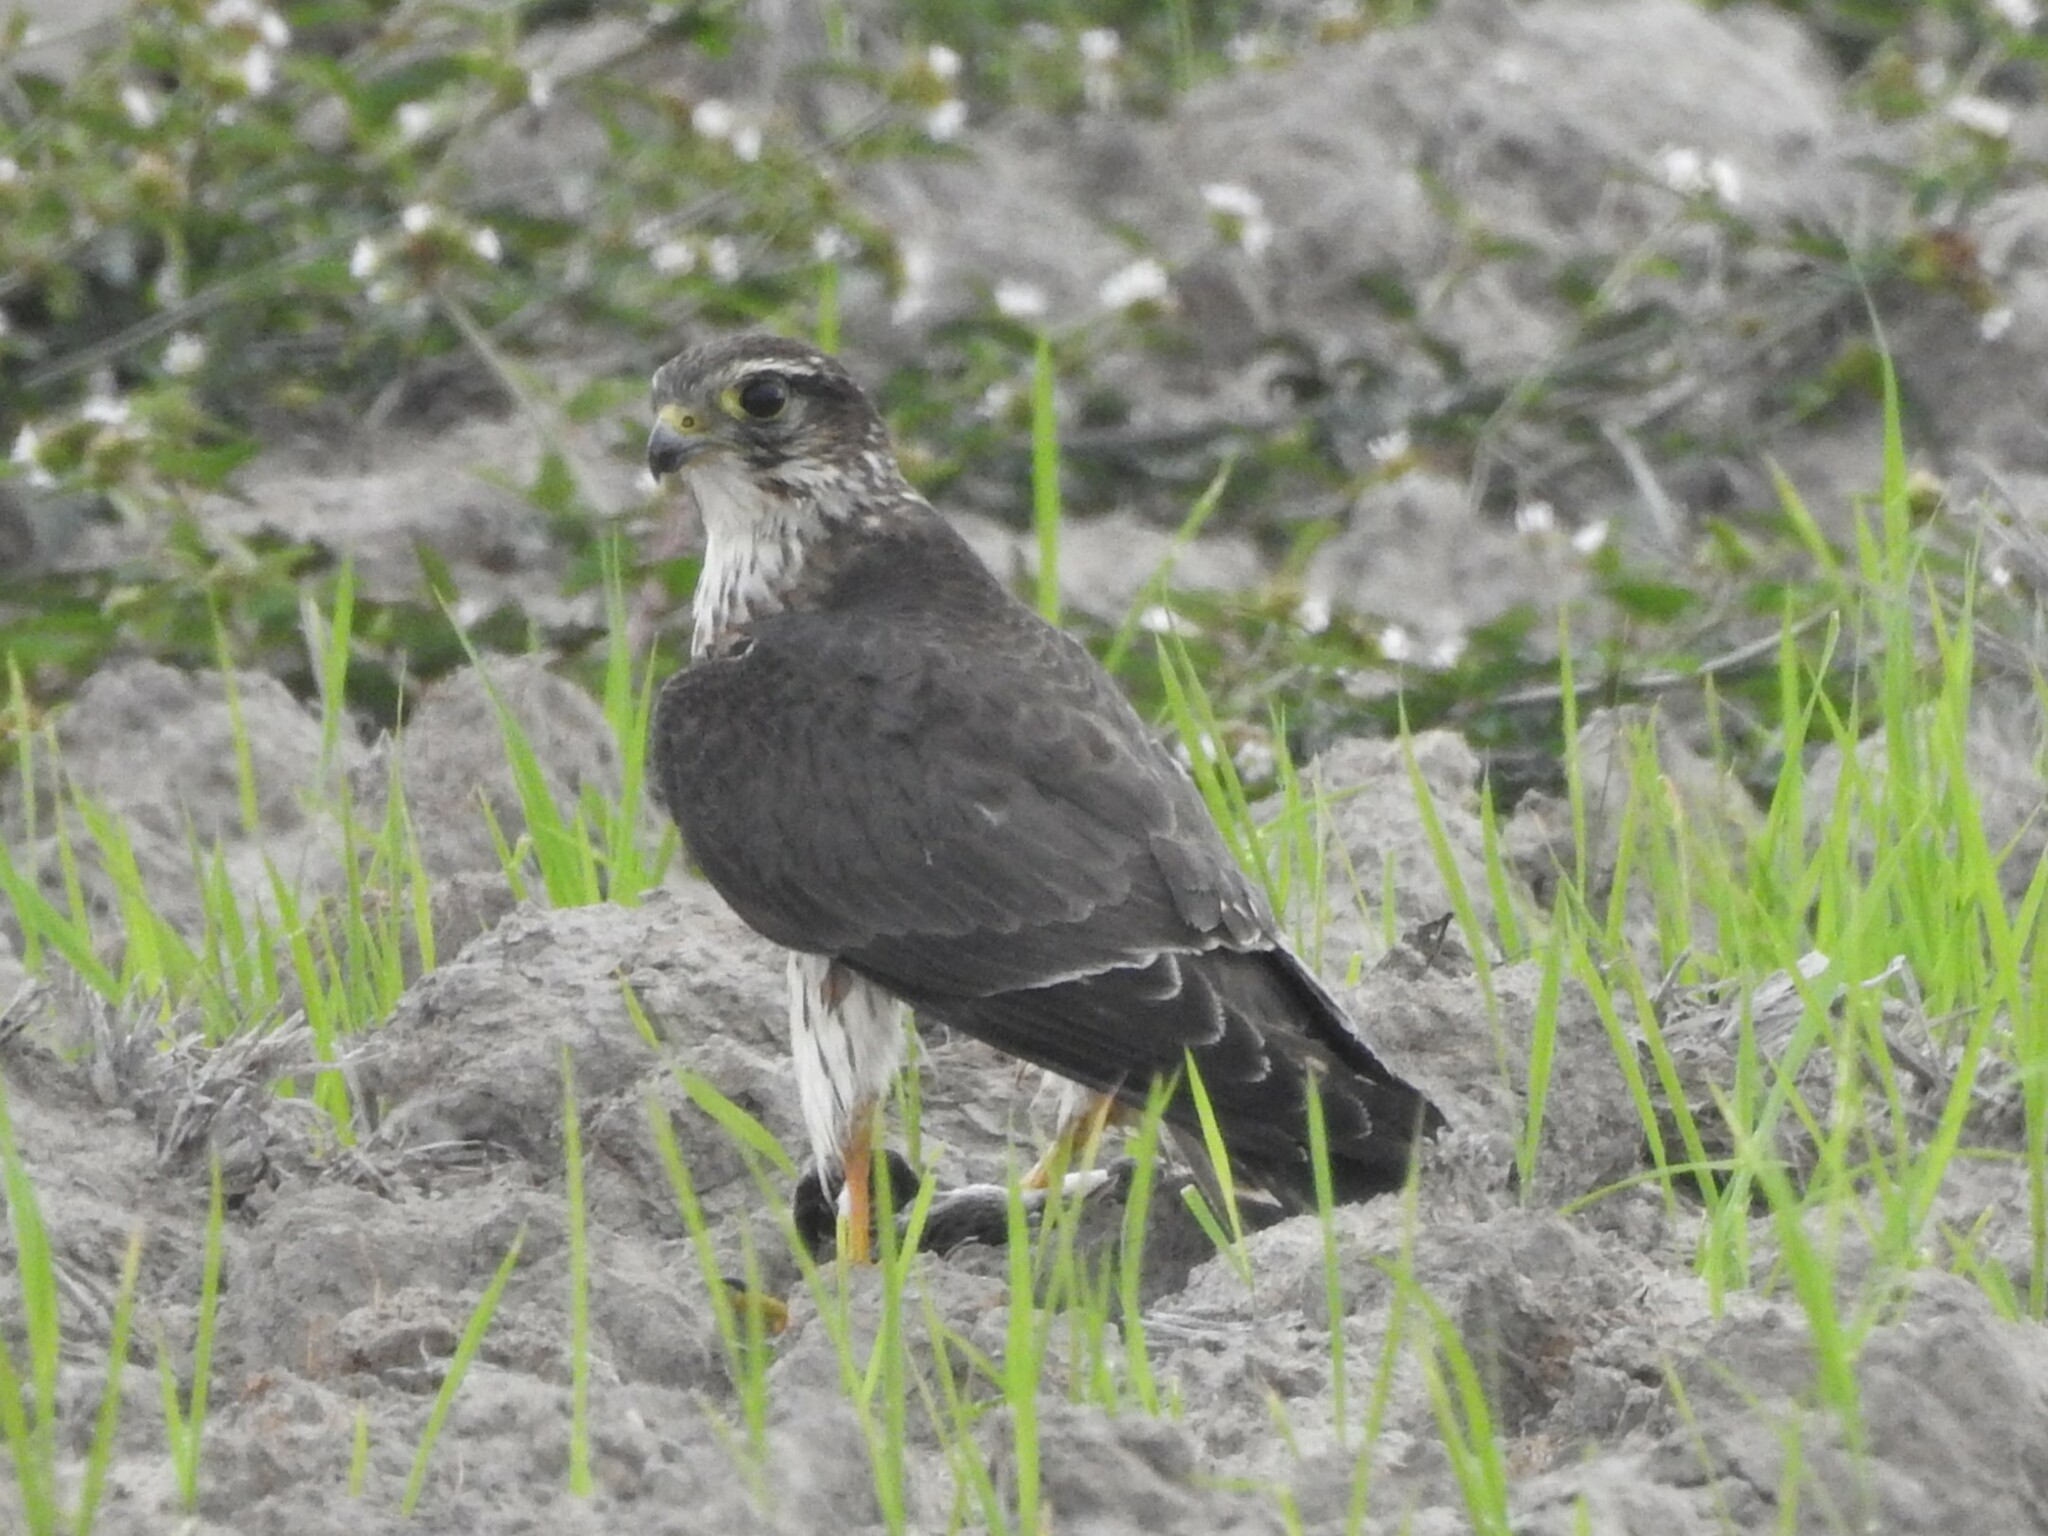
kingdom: Animalia
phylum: Chordata
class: Aves
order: Falconiformes
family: Falconidae
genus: Falco
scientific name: Falco columbarius
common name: Merlin
